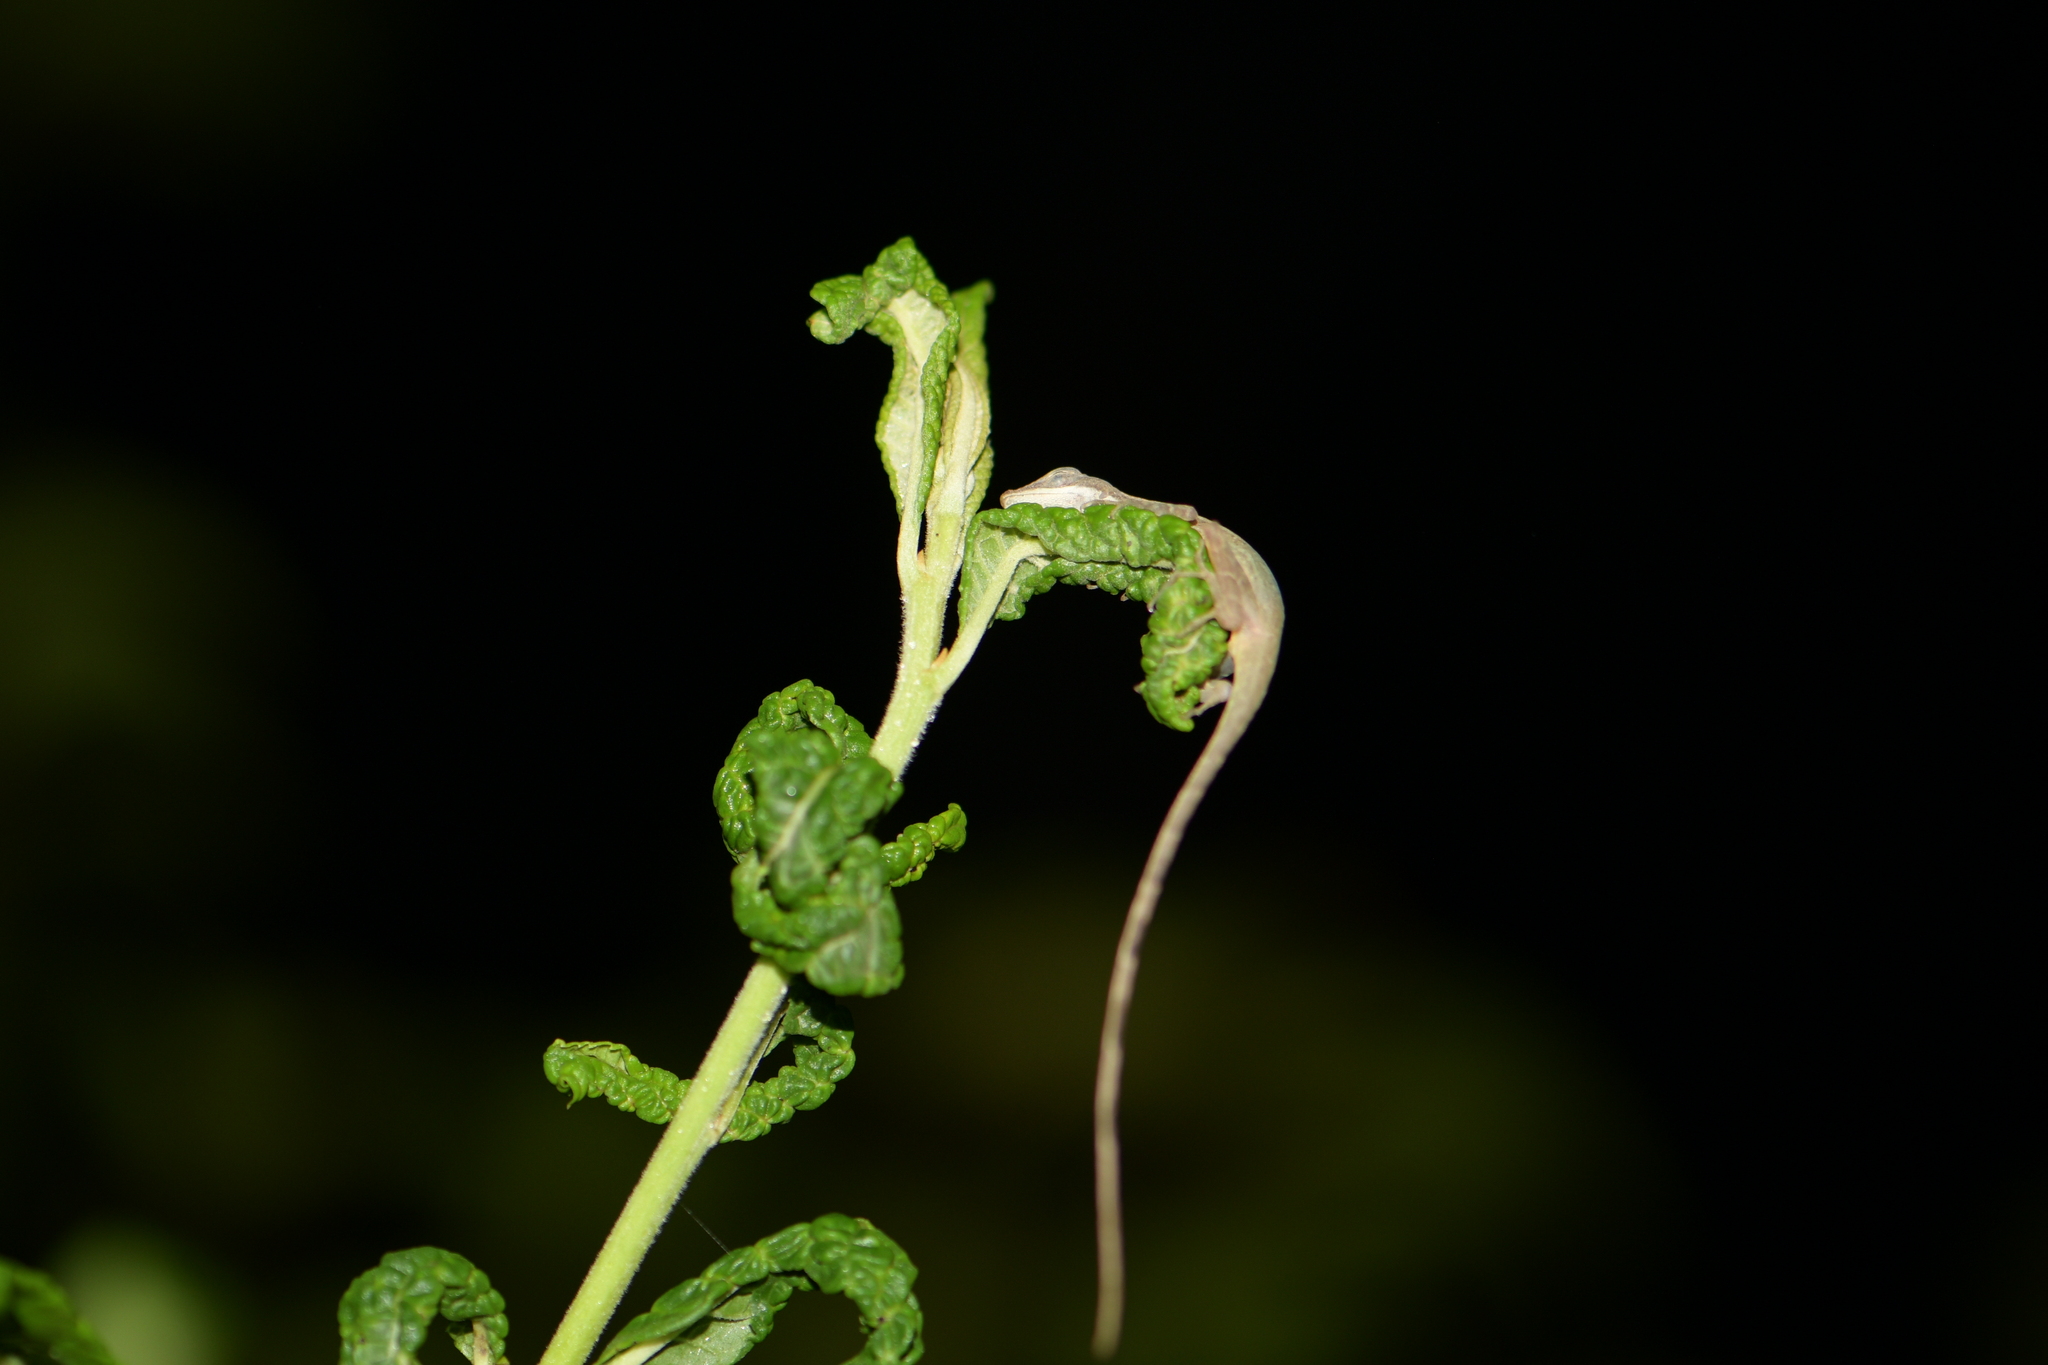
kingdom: Animalia
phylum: Chordata
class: Squamata
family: Dactyloidae
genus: Anolis
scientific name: Anolis limifrons
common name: Border anole
